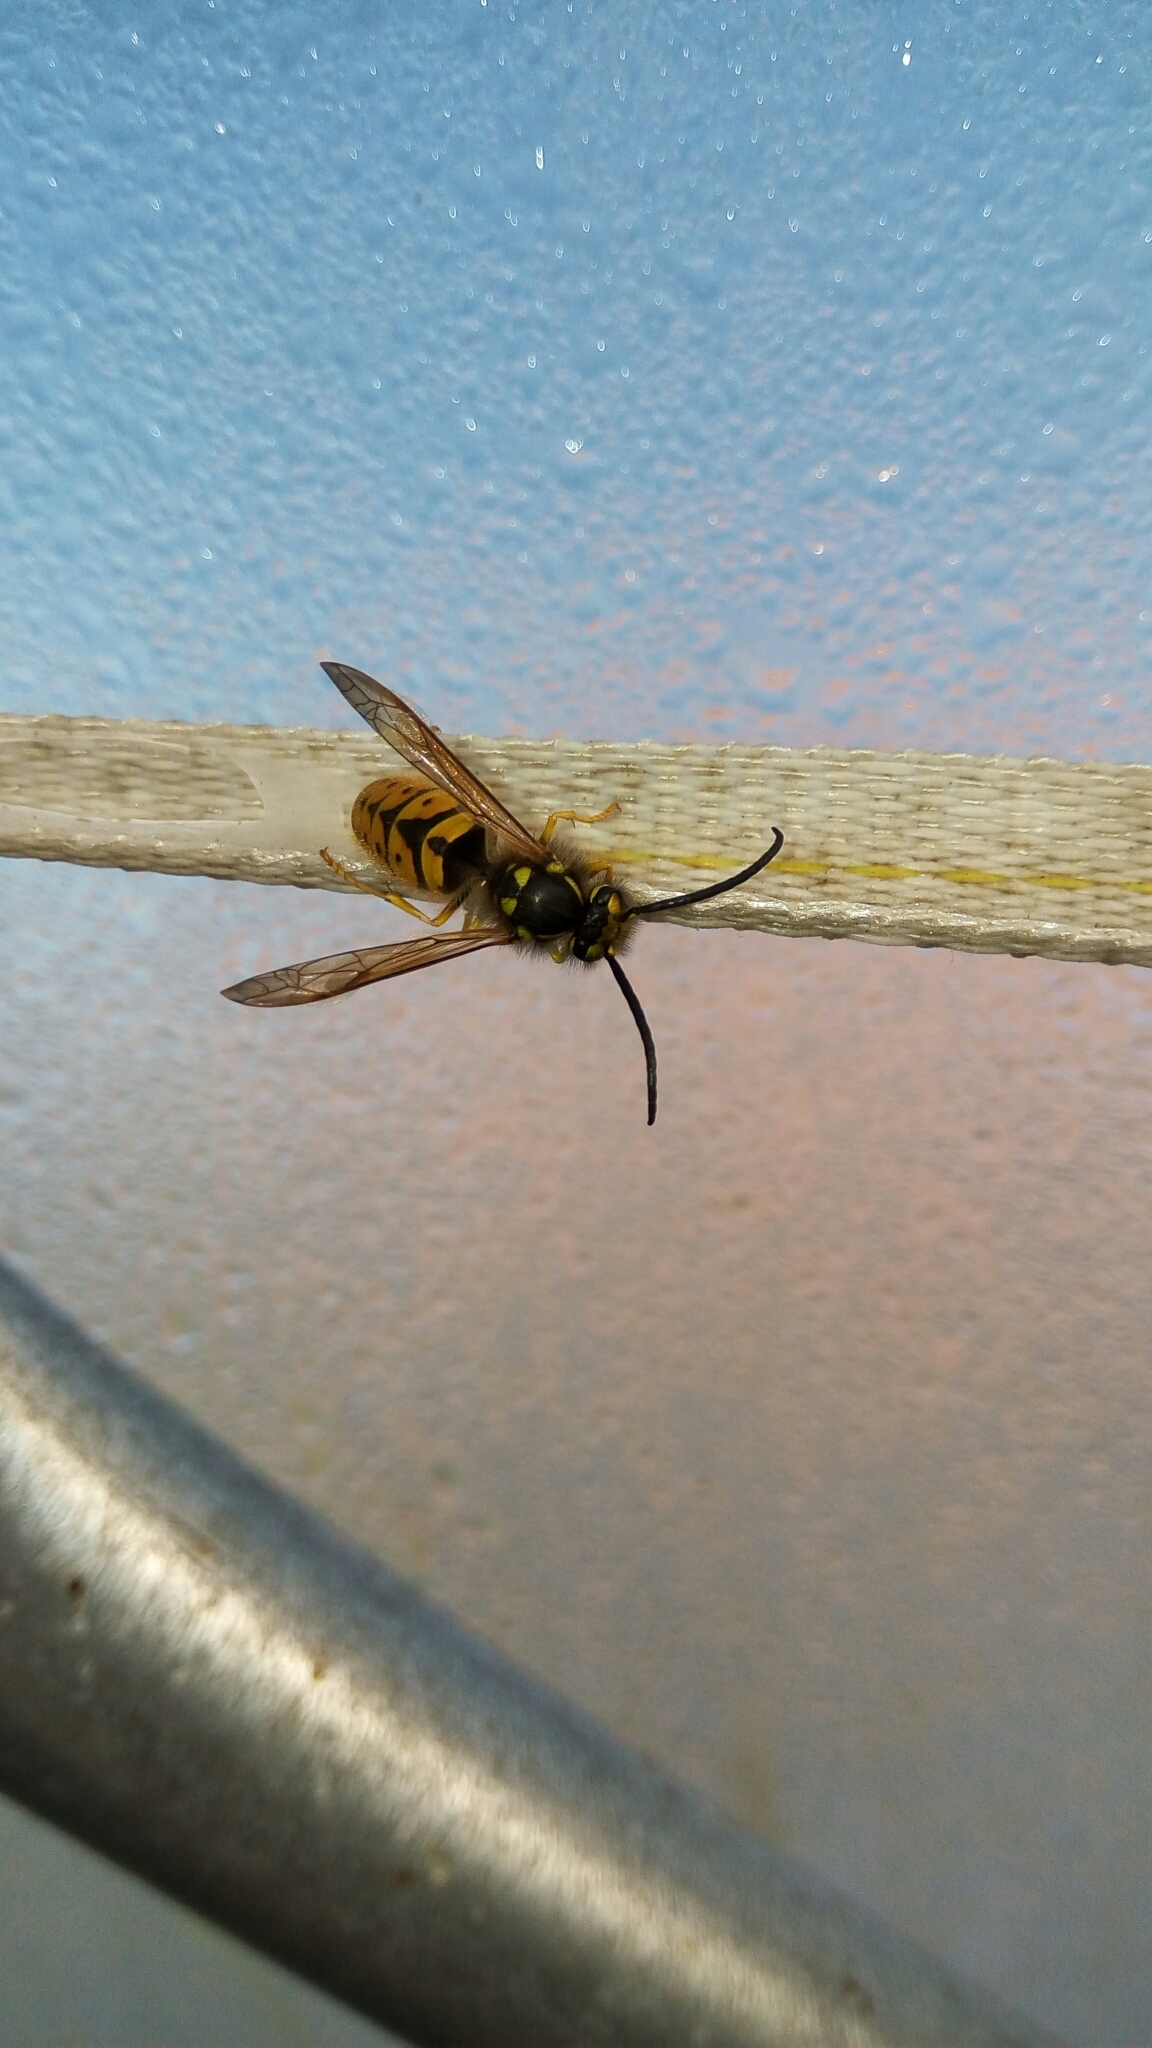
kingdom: Animalia
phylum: Arthropoda
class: Insecta
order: Hymenoptera
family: Vespidae
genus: Vespula
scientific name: Vespula germanica
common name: German wasp
